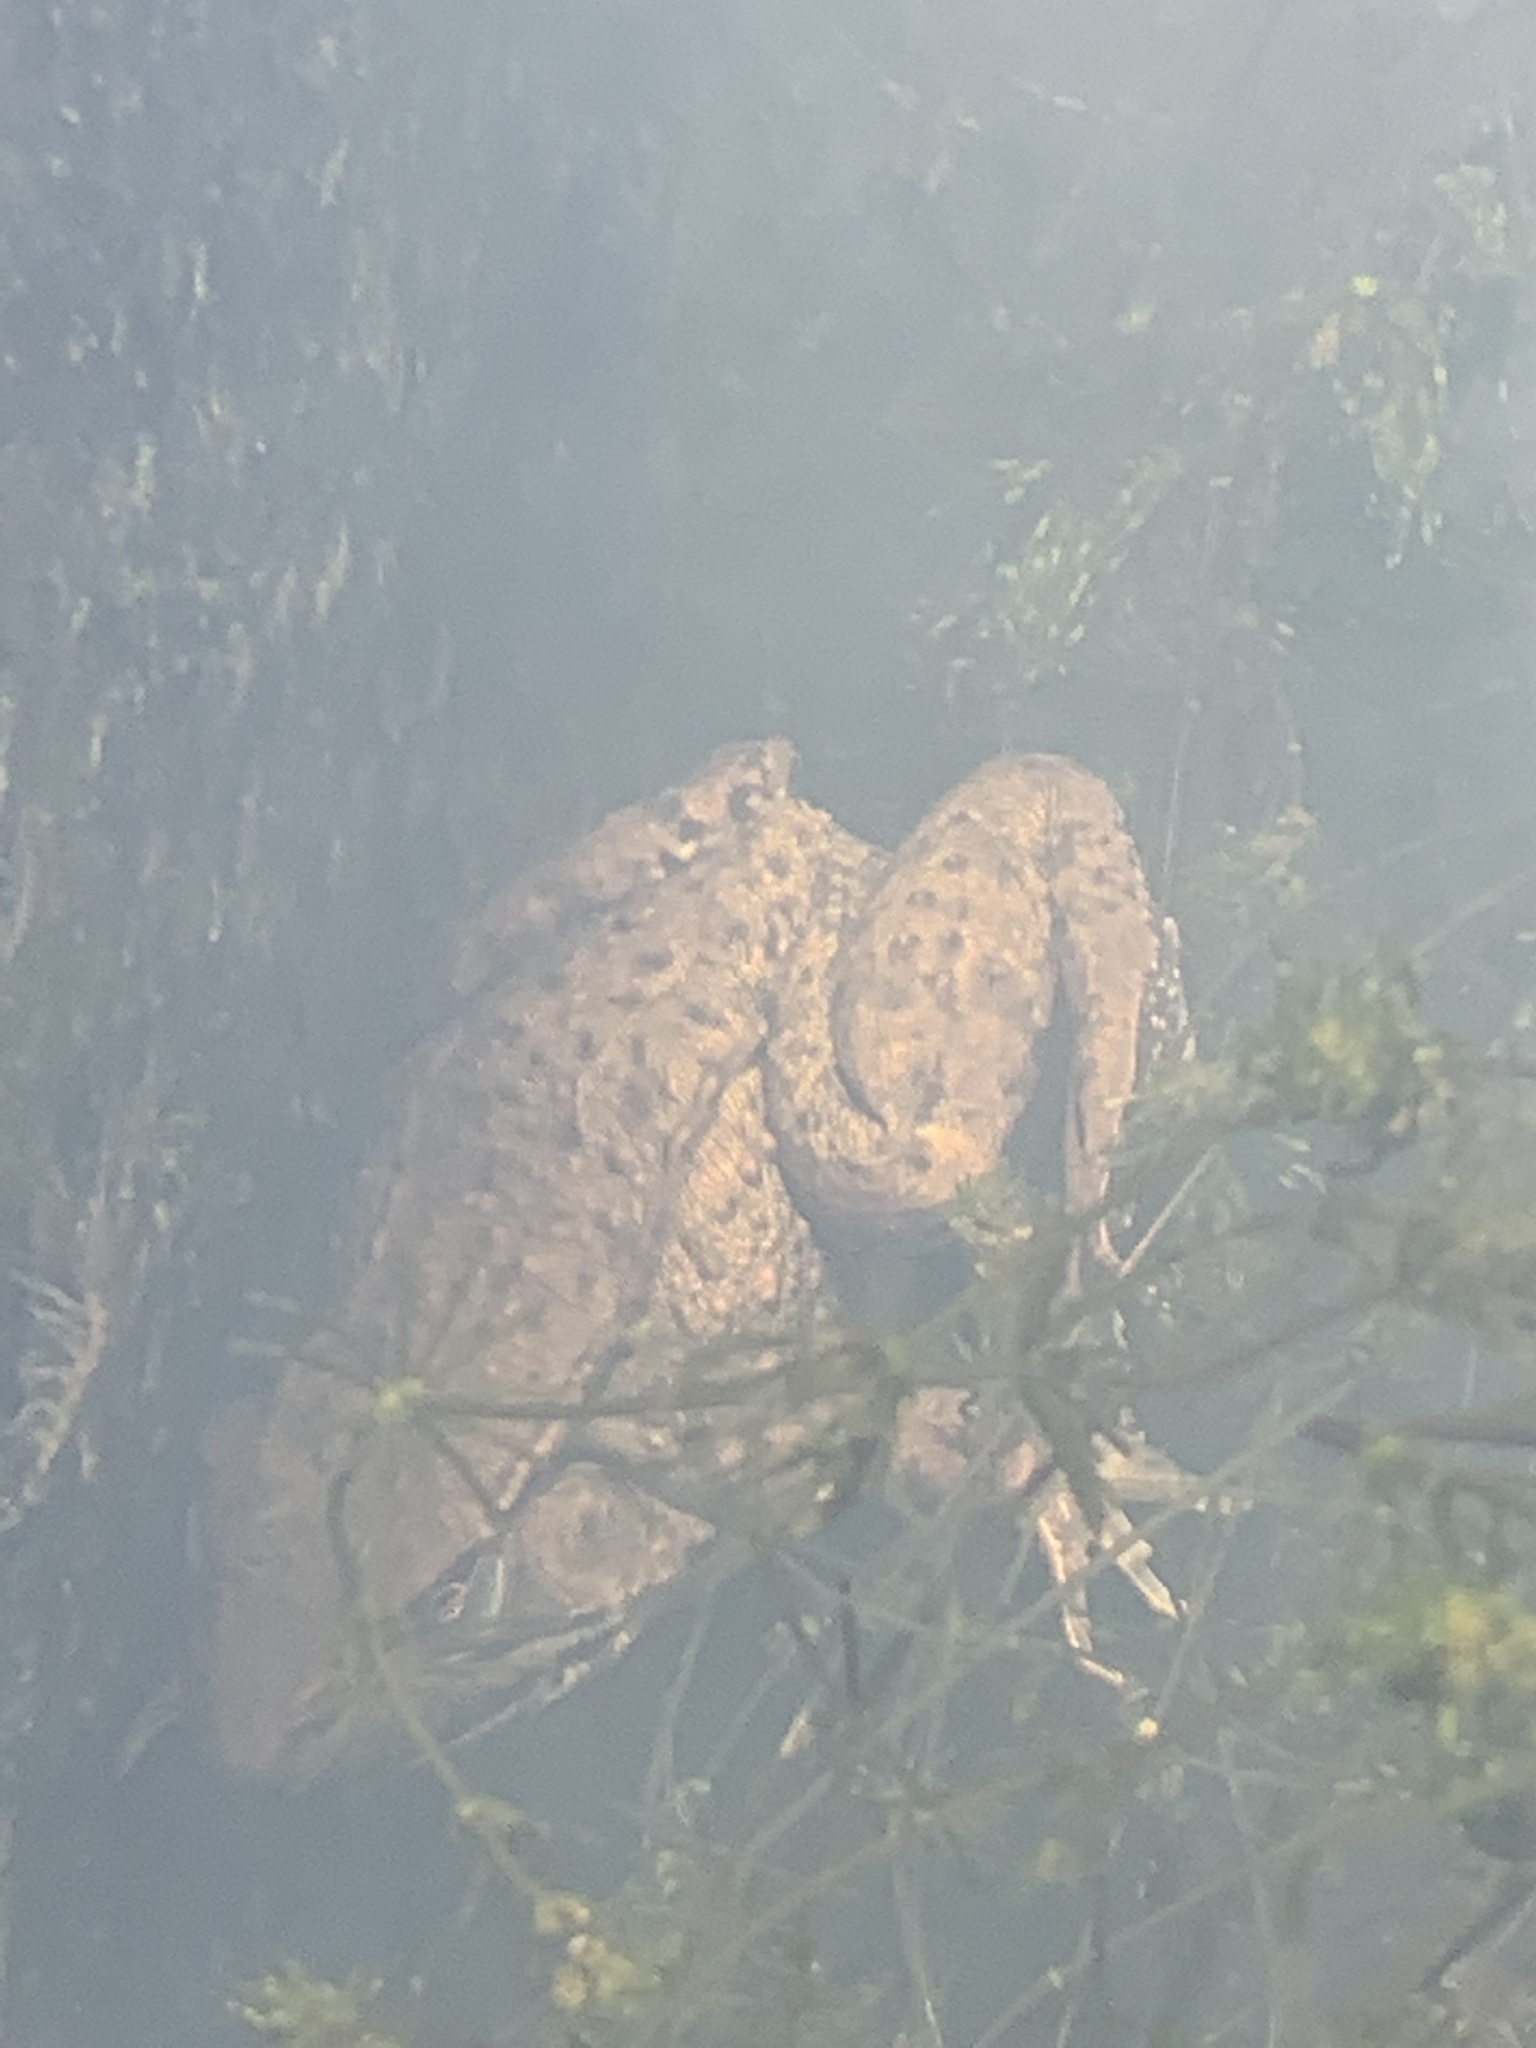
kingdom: Animalia
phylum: Chordata
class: Amphibia
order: Anura
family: Ranidae
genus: Lithobates
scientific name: Lithobates clamitans
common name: Green frog
